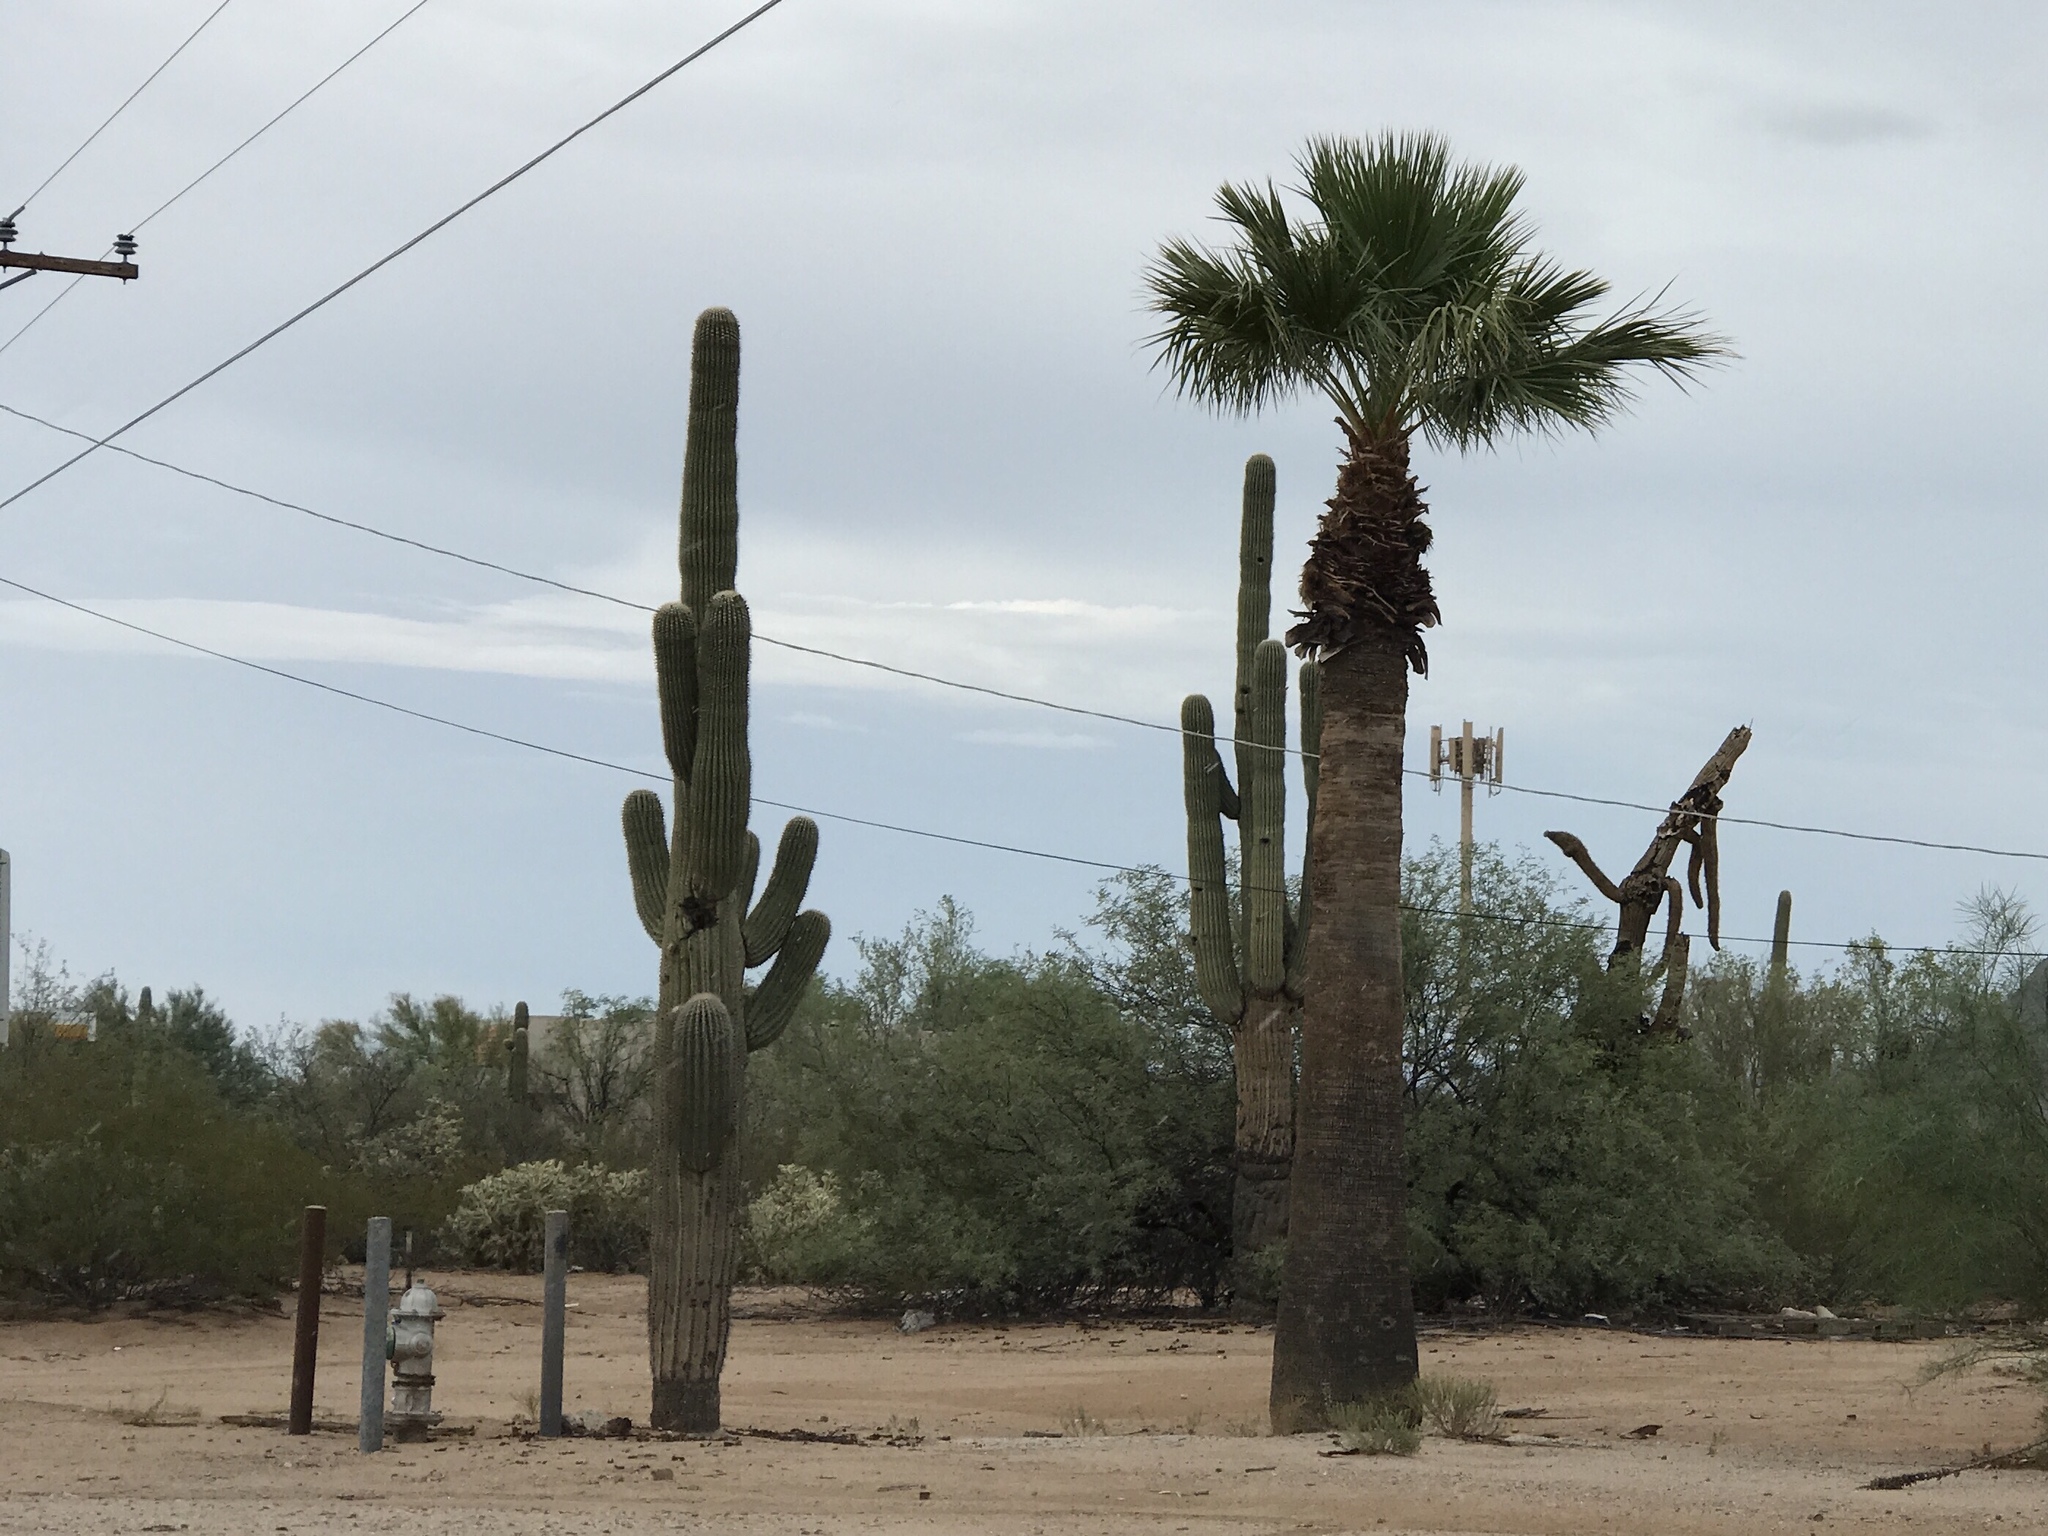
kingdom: Plantae
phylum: Tracheophyta
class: Magnoliopsida
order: Caryophyllales
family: Cactaceae
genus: Carnegiea
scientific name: Carnegiea gigantea
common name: Saguaro
